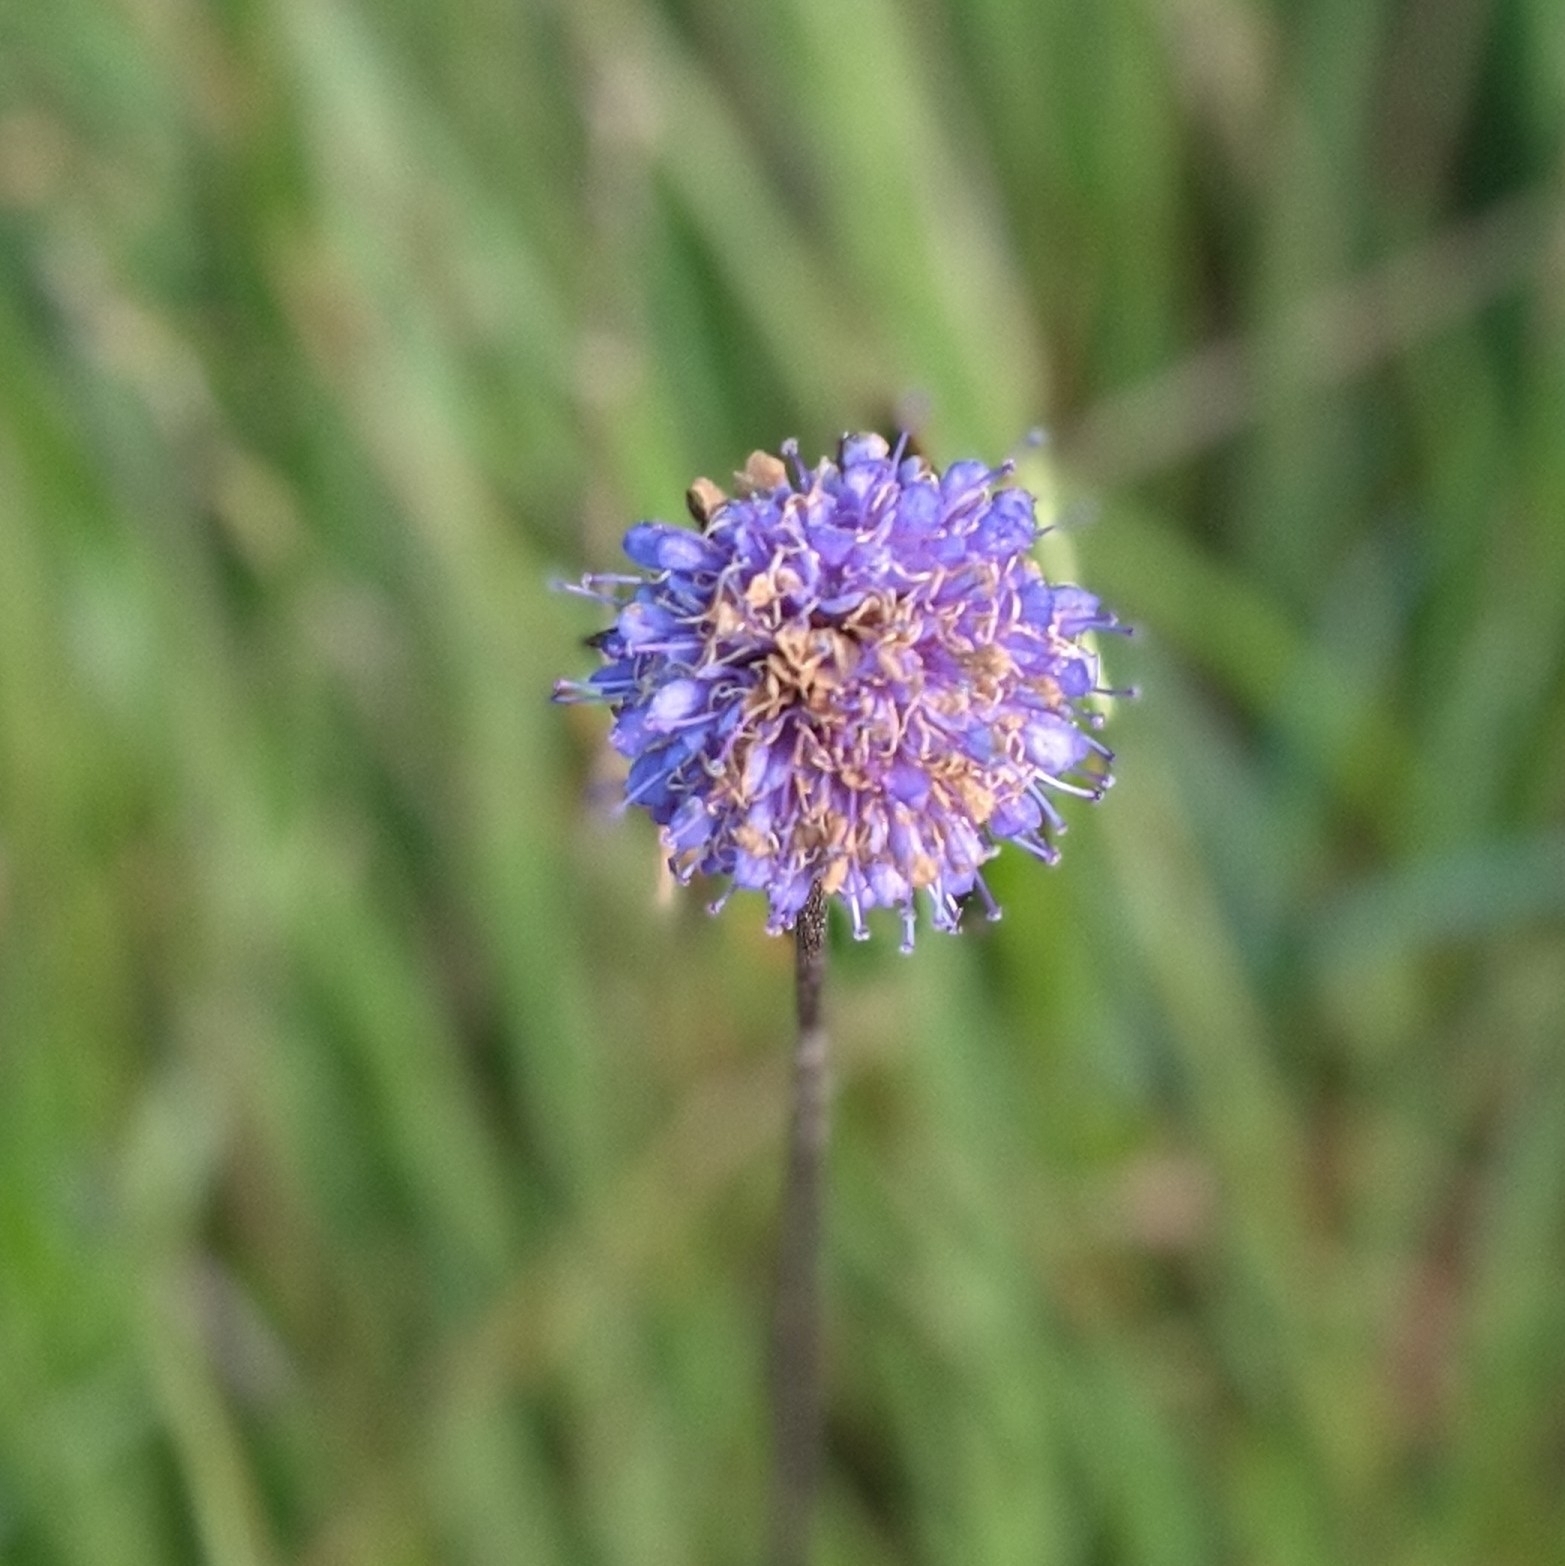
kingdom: Plantae
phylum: Tracheophyta
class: Magnoliopsida
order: Dipsacales
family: Caprifoliaceae
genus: Succisa
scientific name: Succisa pratensis
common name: Devil's-bit
